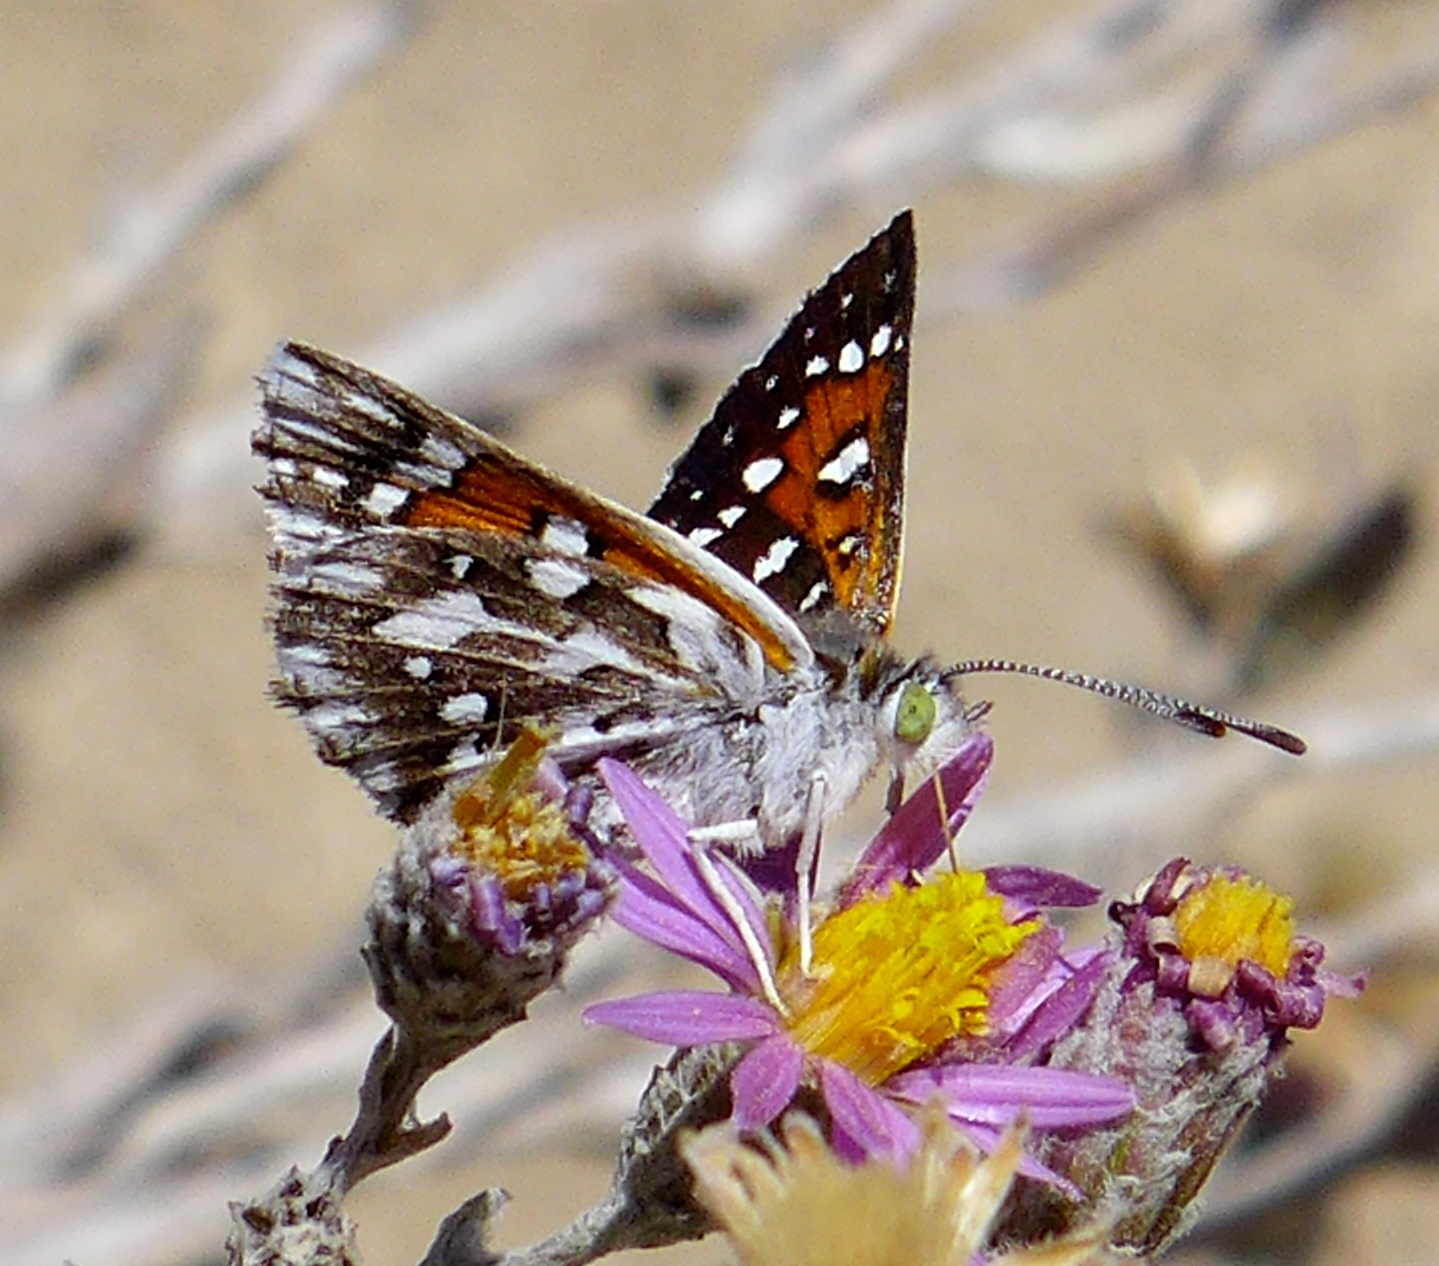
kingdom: Animalia
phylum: Arthropoda
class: Insecta
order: Lepidoptera
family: Riodinidae
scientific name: Riodinidae
